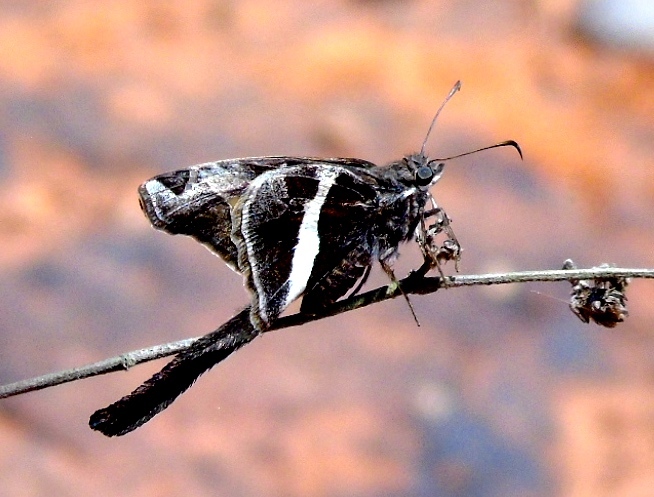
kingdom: Animalia
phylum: Arthropoda
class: Insecta
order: Lepidoptera
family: Hesperiidae
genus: Chioides
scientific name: Chioides catillus
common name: Silverbanded skipper
